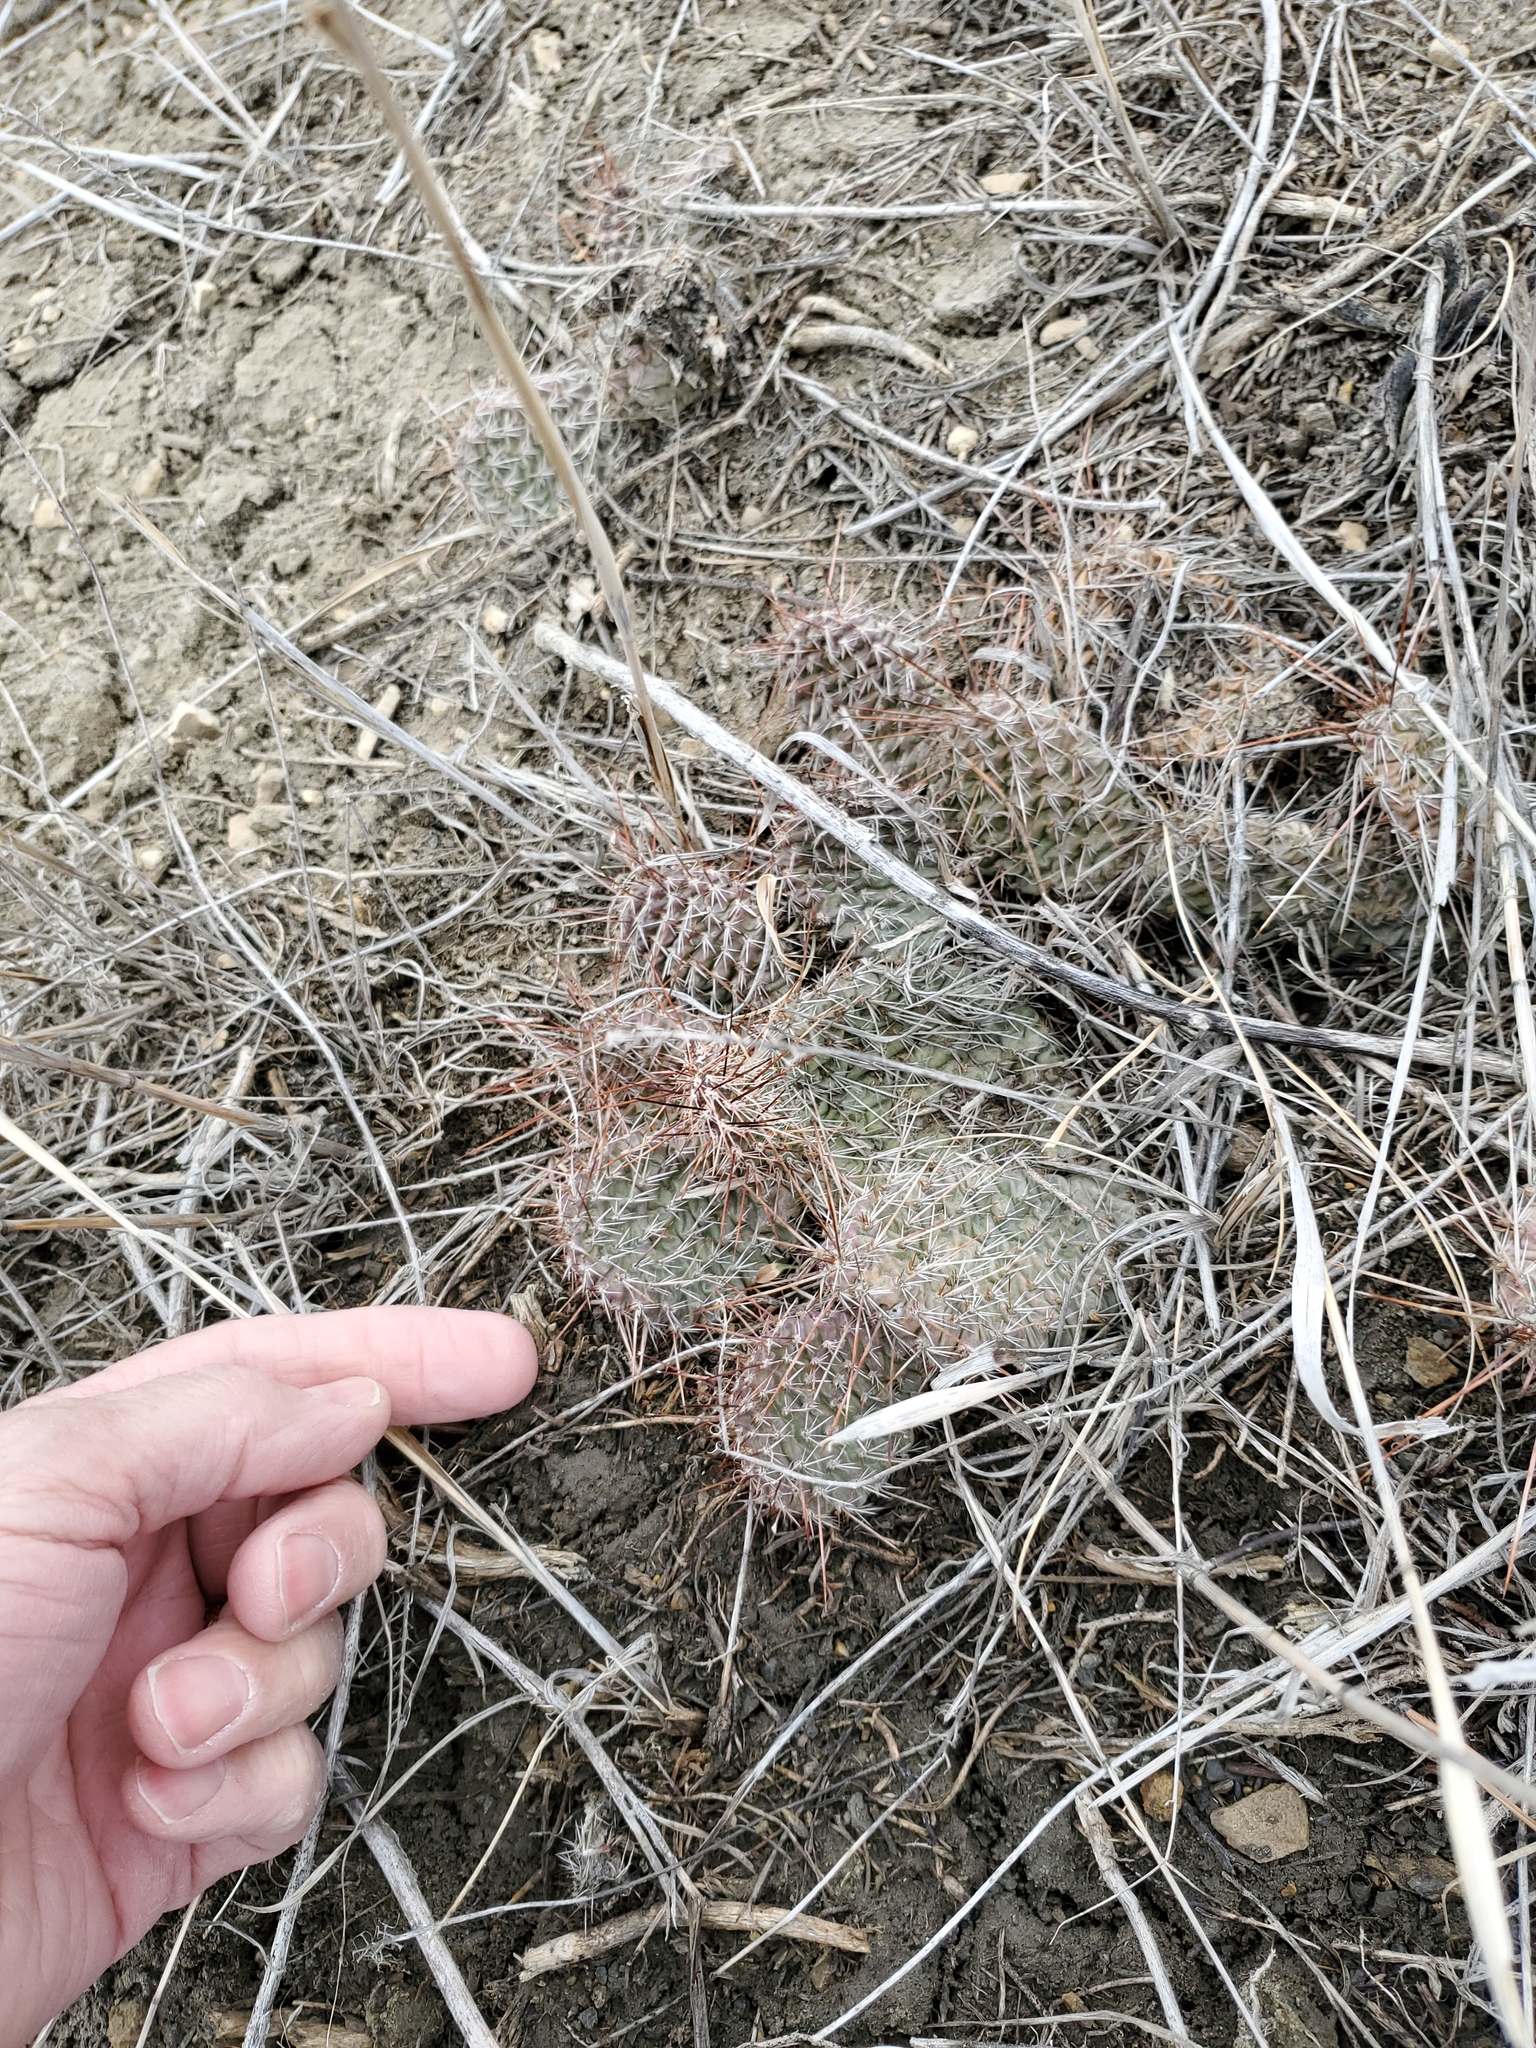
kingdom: Plantae
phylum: Tracheophyta
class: Magnoliopsida
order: Caryophyllales
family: Cactaceae
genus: Opuntia
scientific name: Opuntia polyacantha
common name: Plains prickly-pear
